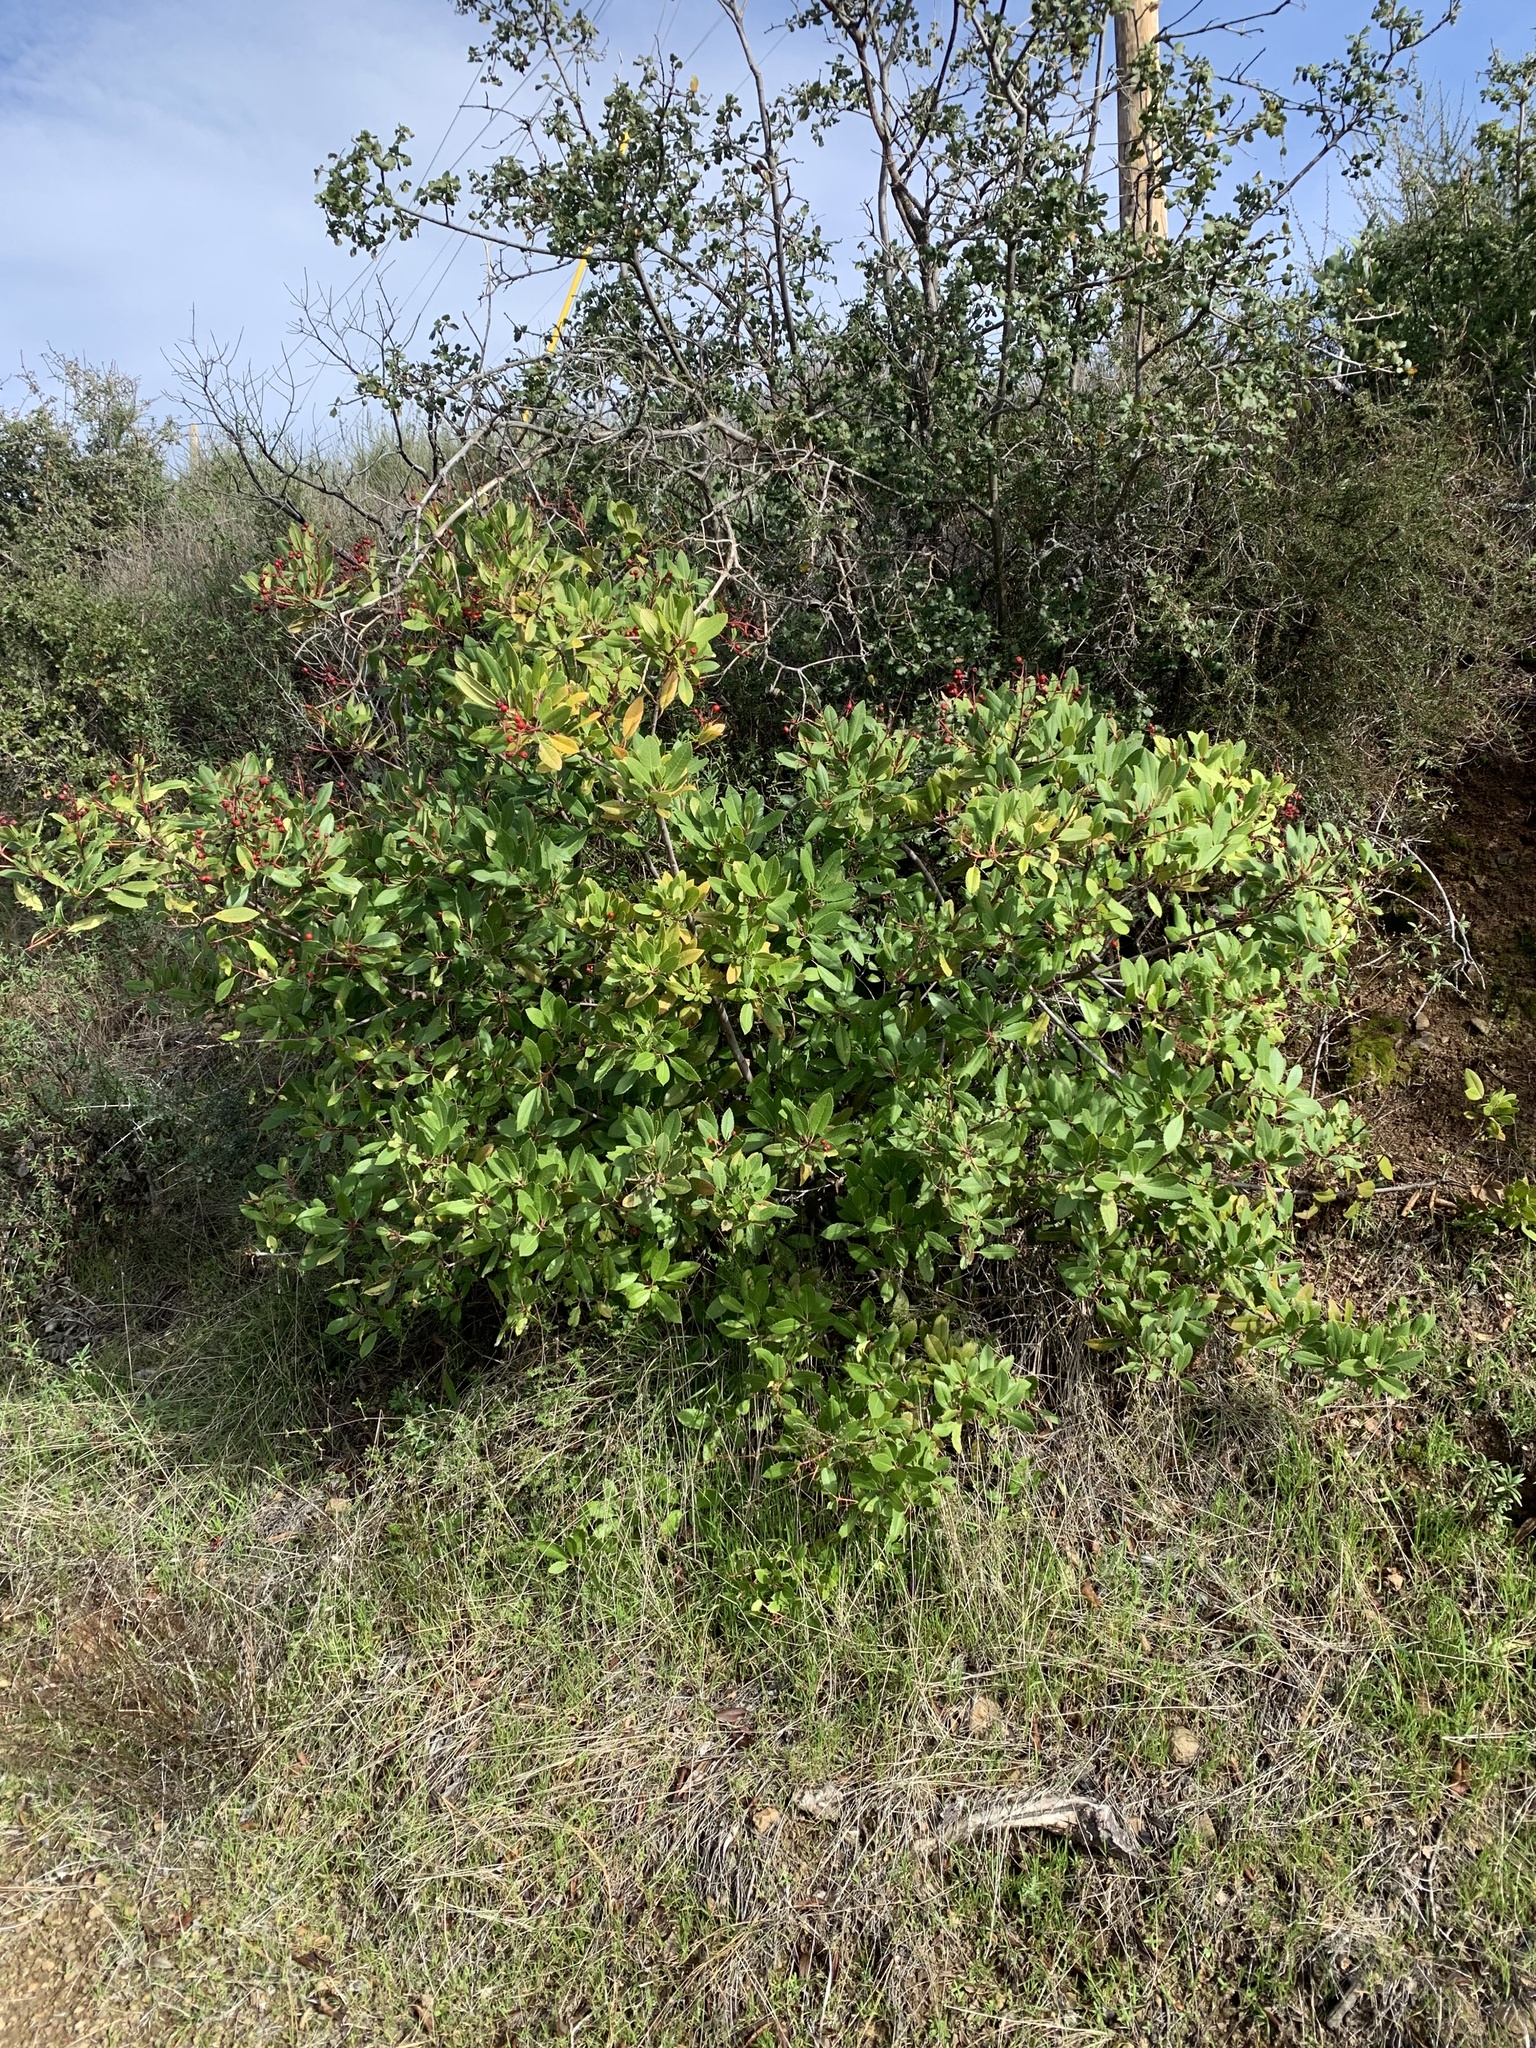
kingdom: Plantae
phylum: Tracheophyta
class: Magnoliopsida
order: Rosales
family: Rosaceae
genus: Heteromeles
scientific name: Heteromeles arbutifolia
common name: California-holly
